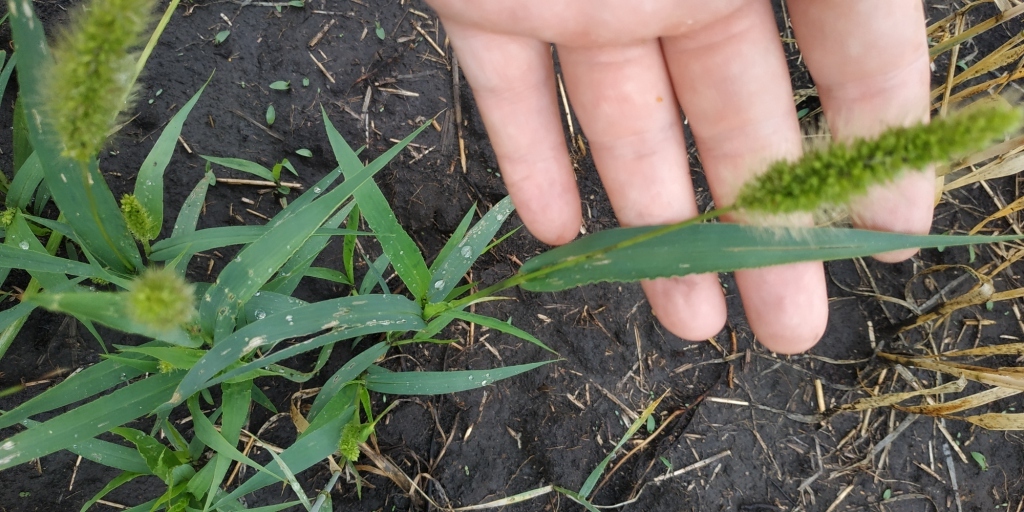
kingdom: Plantae
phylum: Tracheophyta
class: Liliopsida
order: Poales
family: Poaceae
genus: Setaria
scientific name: Setaria viridis
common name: Green bristlegrass
